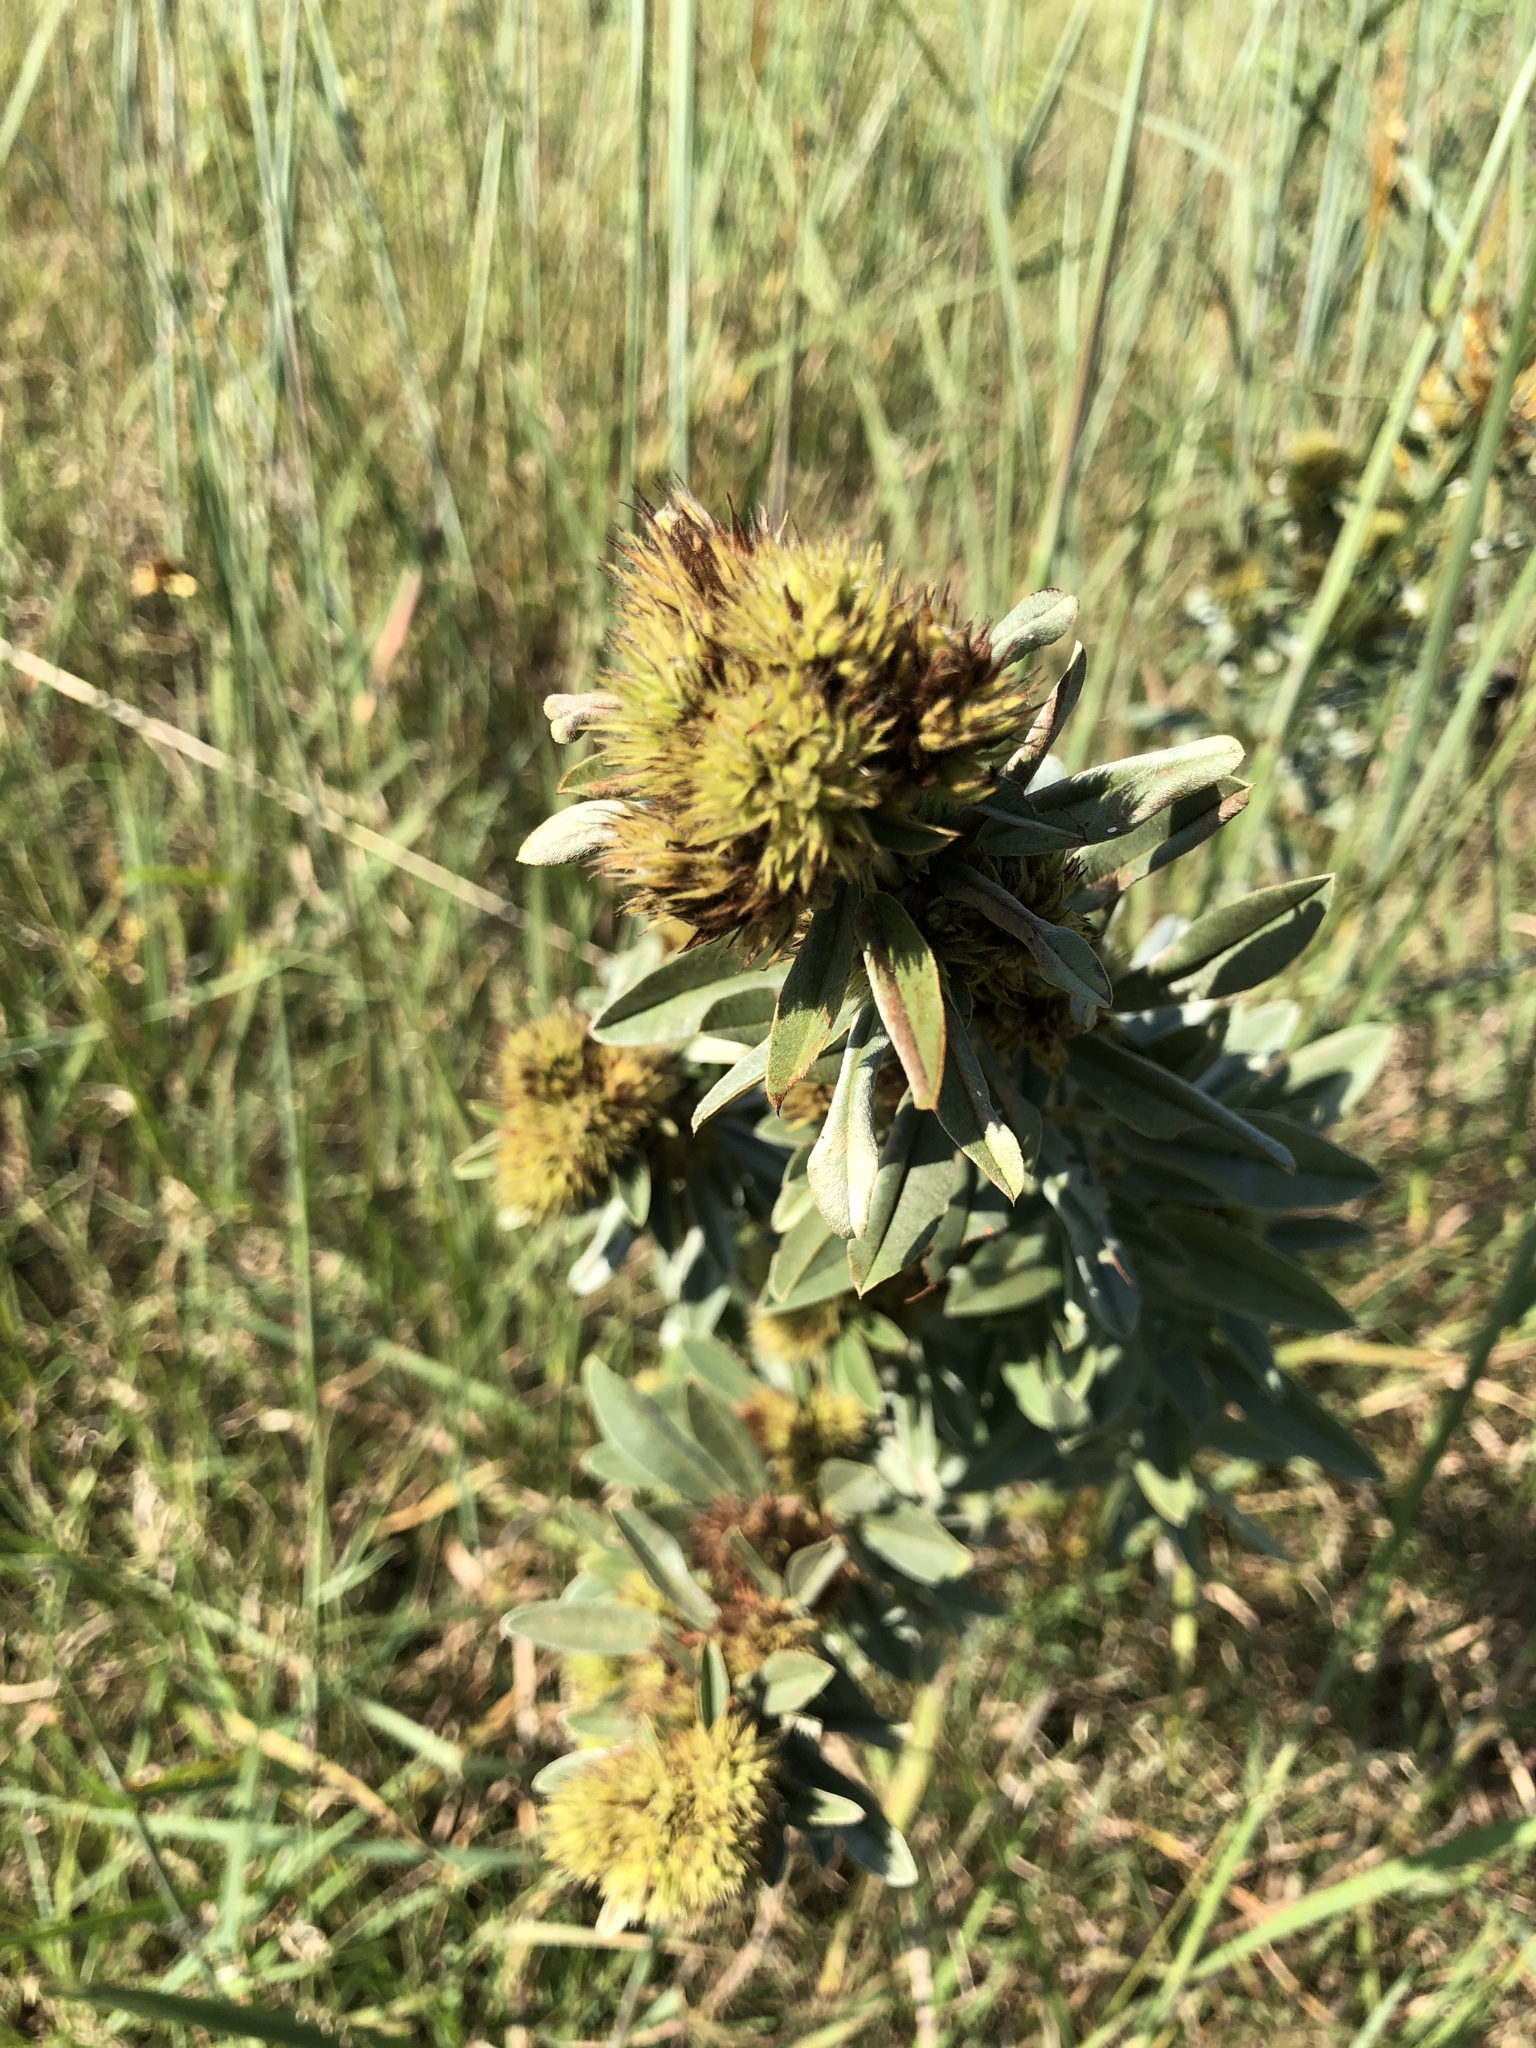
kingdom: Plantae
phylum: Tracheophyta
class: Magnoliopsida
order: Fabales
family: Fabaceae
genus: Lespedeza
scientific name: Lespedeza capitata
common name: Dusty clover
